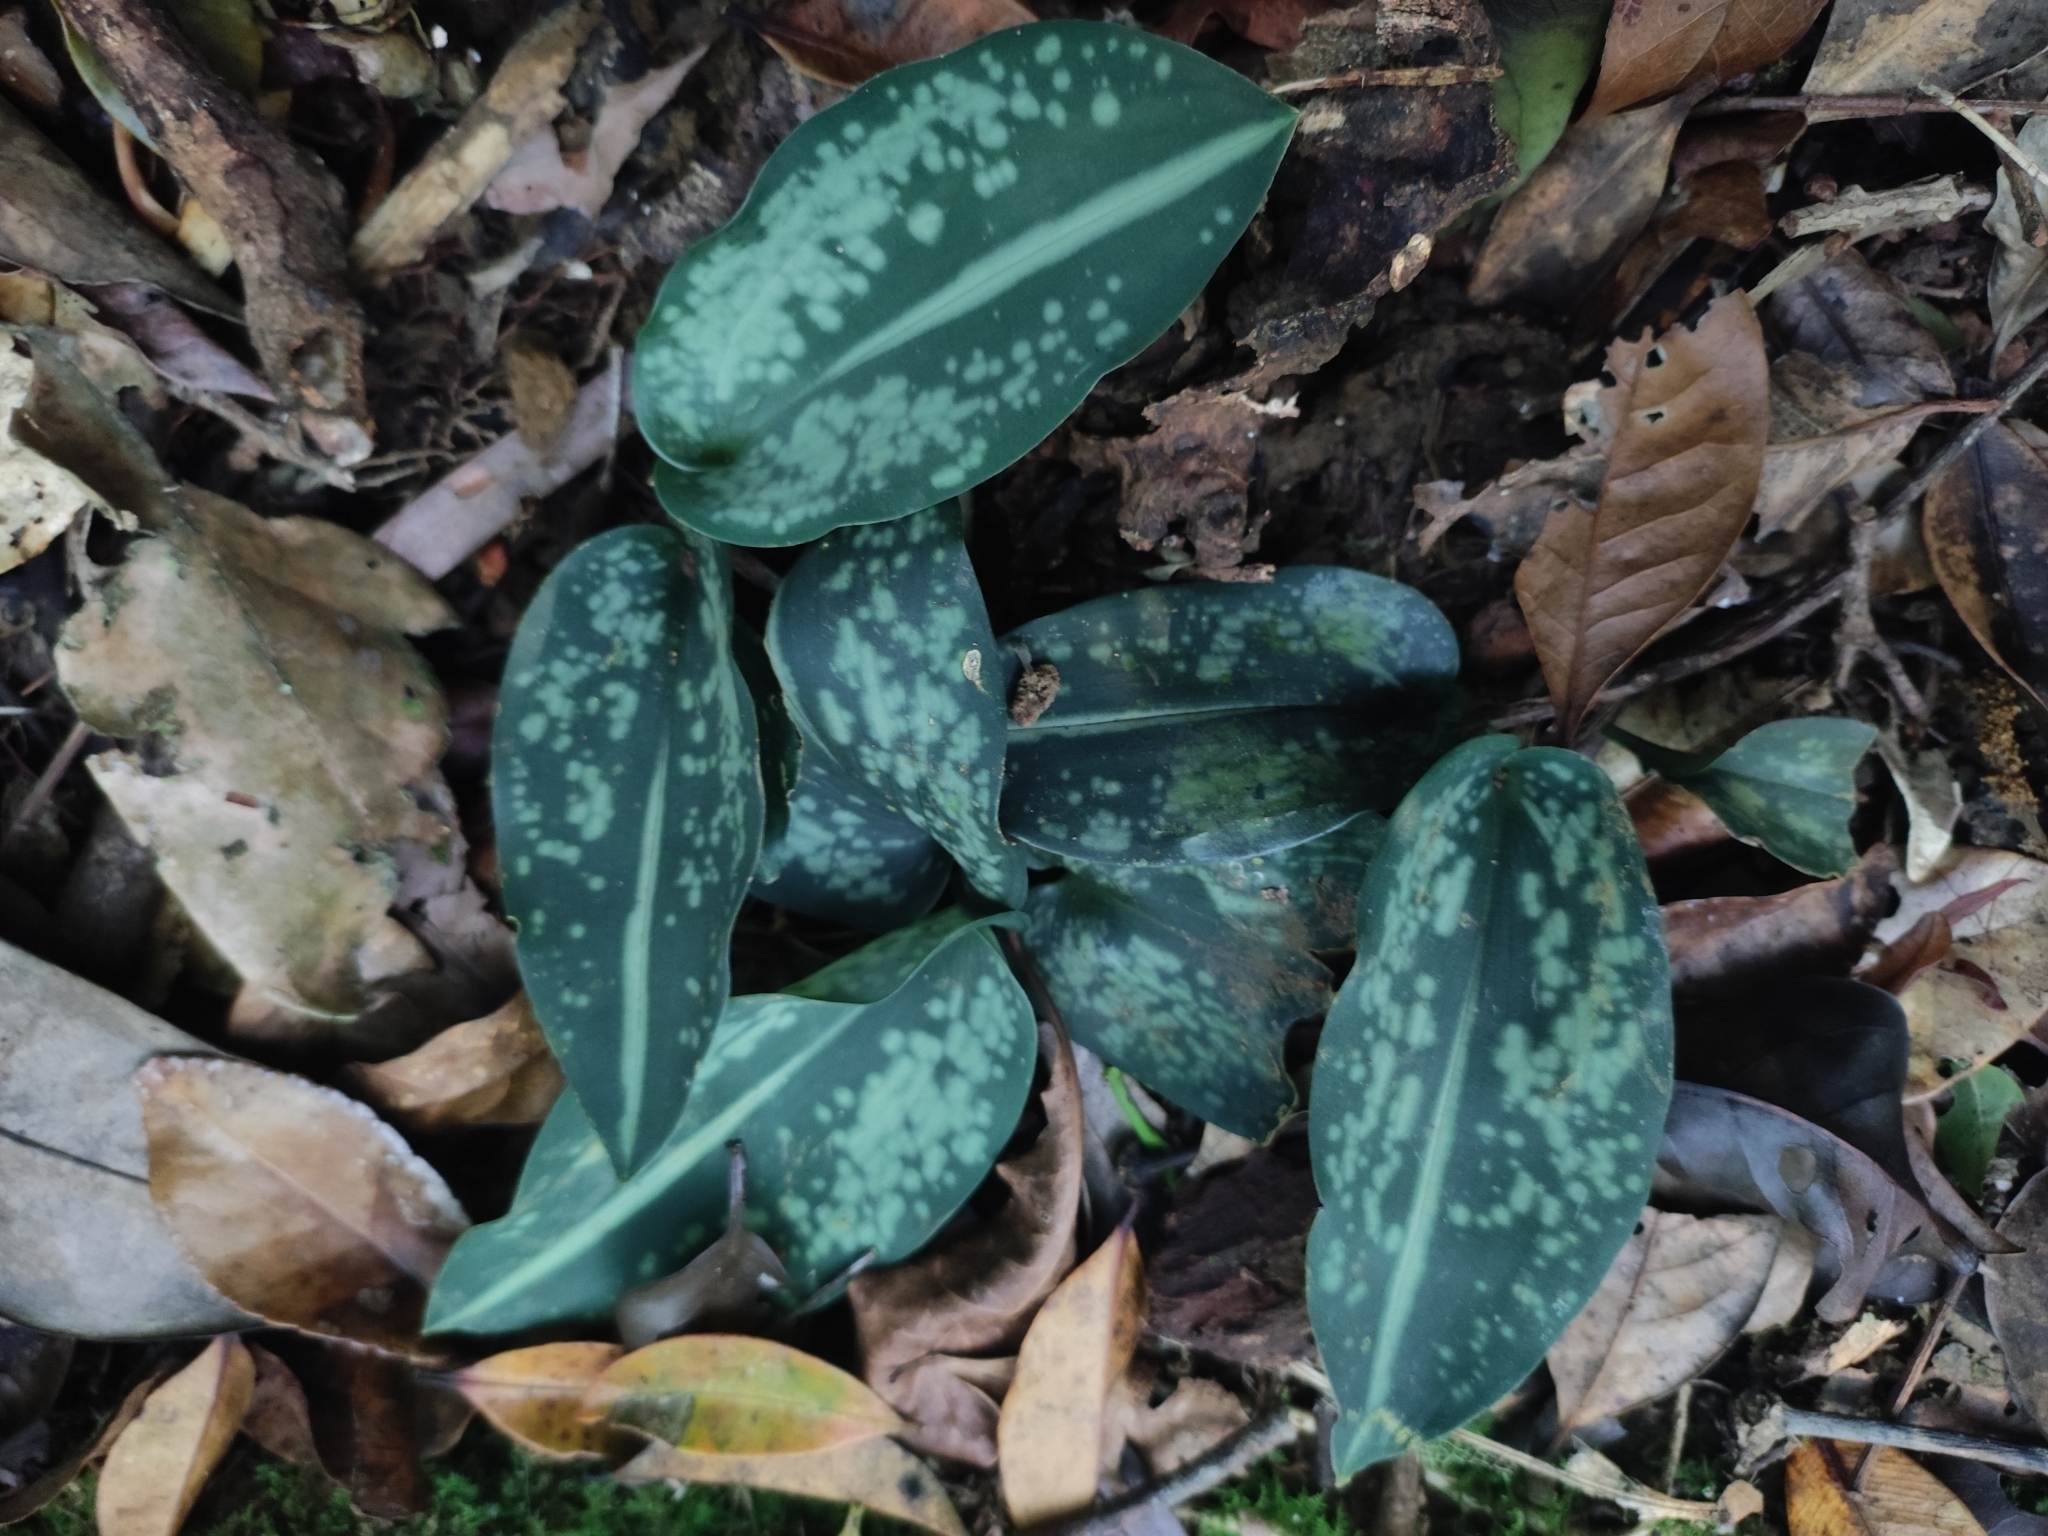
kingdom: Plantae
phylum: Tracheophyta
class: Liliopsida
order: Asparagales
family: Asparagaceae
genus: Aspidistra
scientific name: Aspidistra minor
